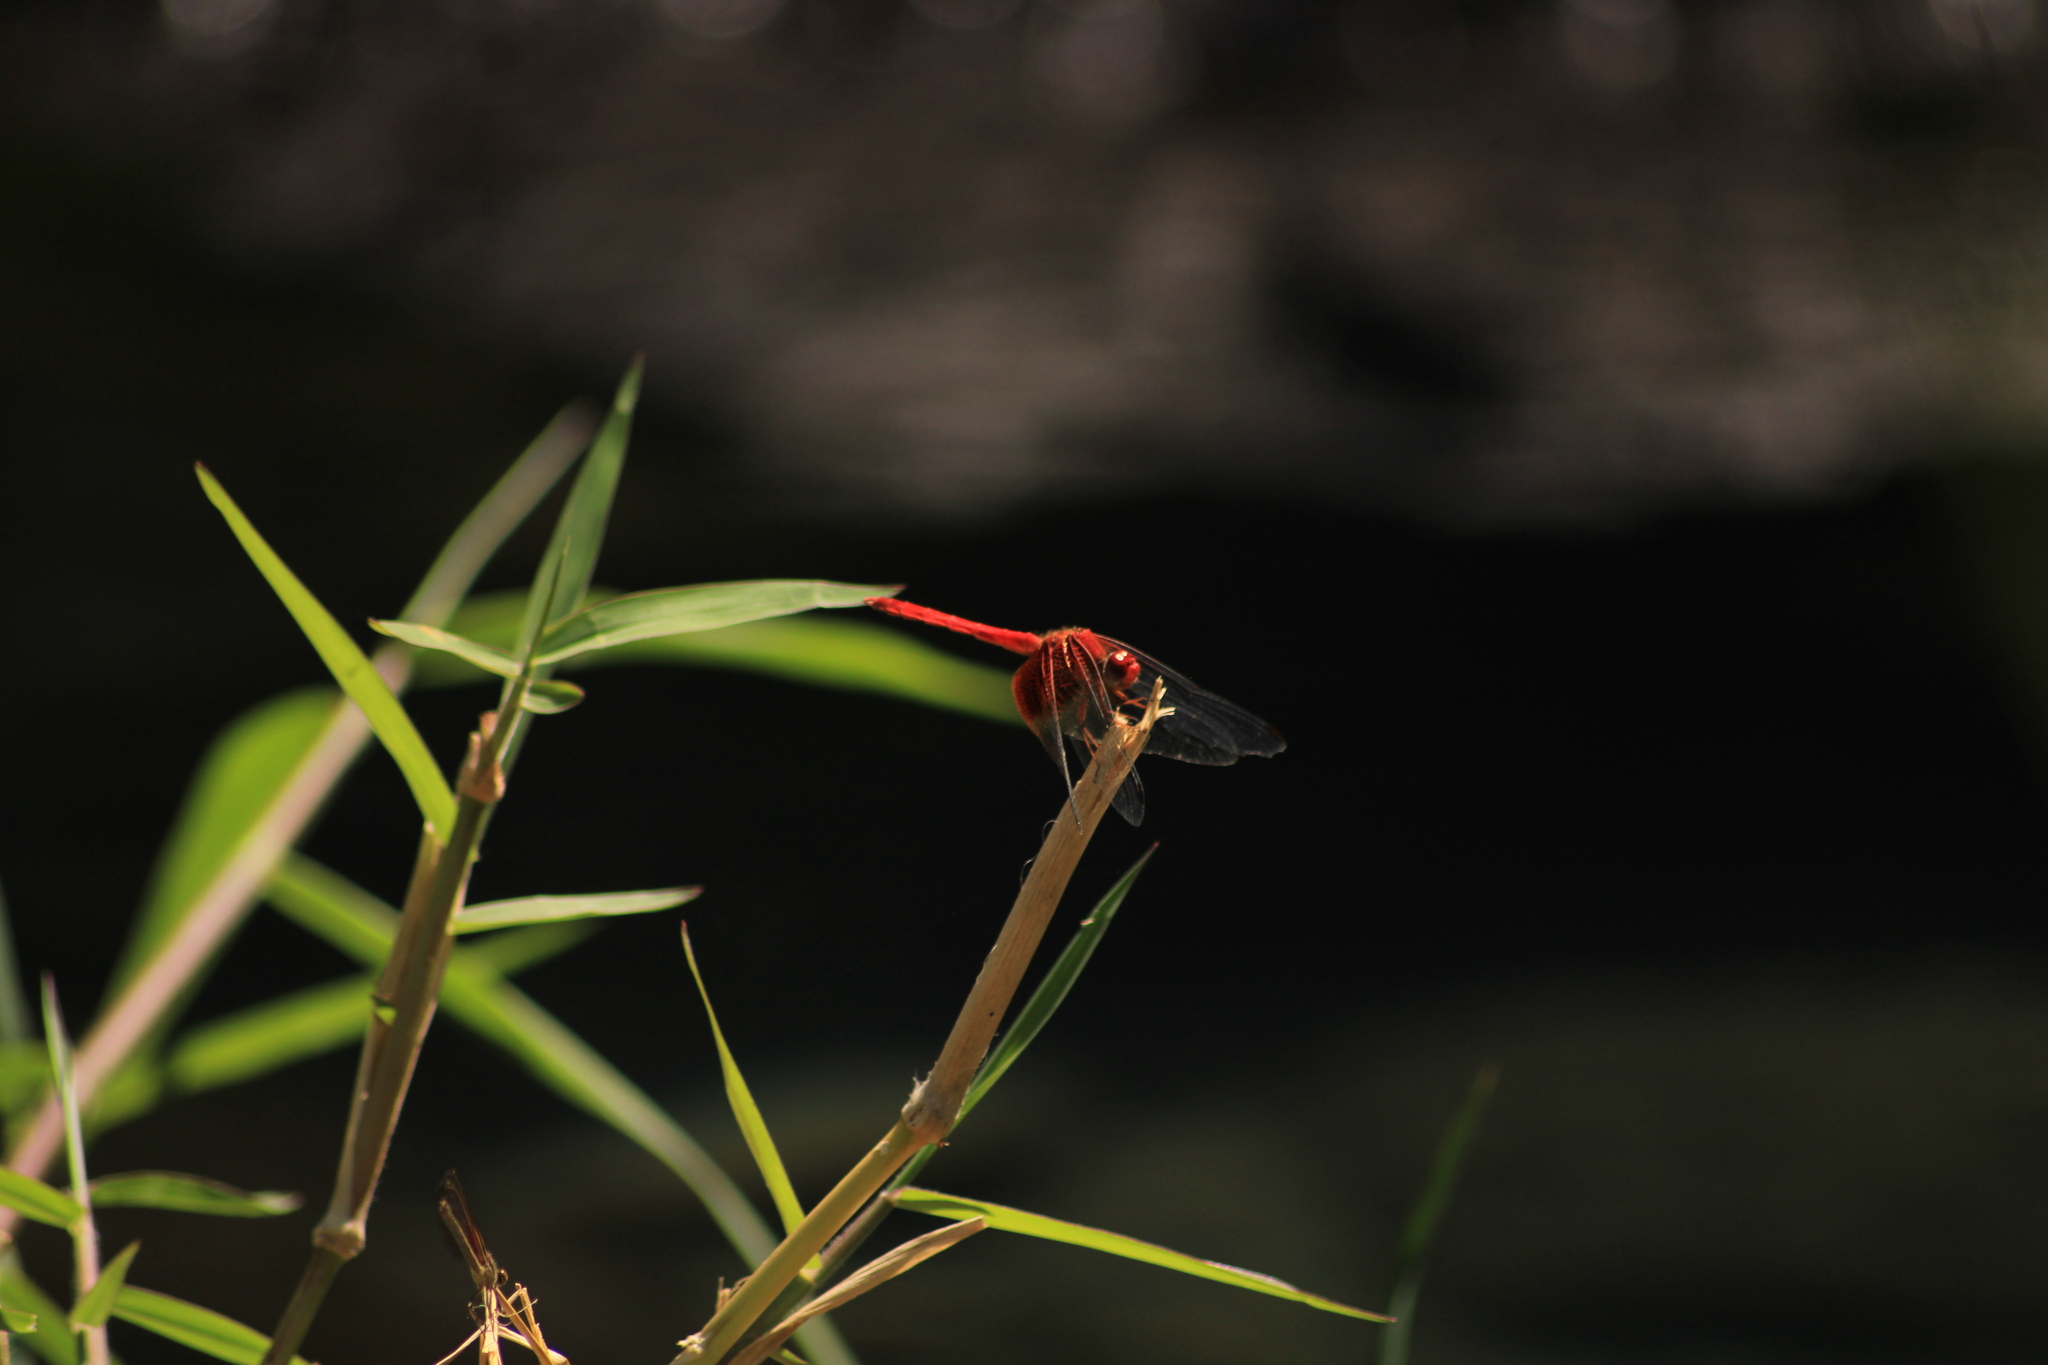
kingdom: Animalia
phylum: Arthropoda
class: Insecta
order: Odonata
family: Libellulidae
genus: Dythemis
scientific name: Dythemis maya
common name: Mayan setwing
